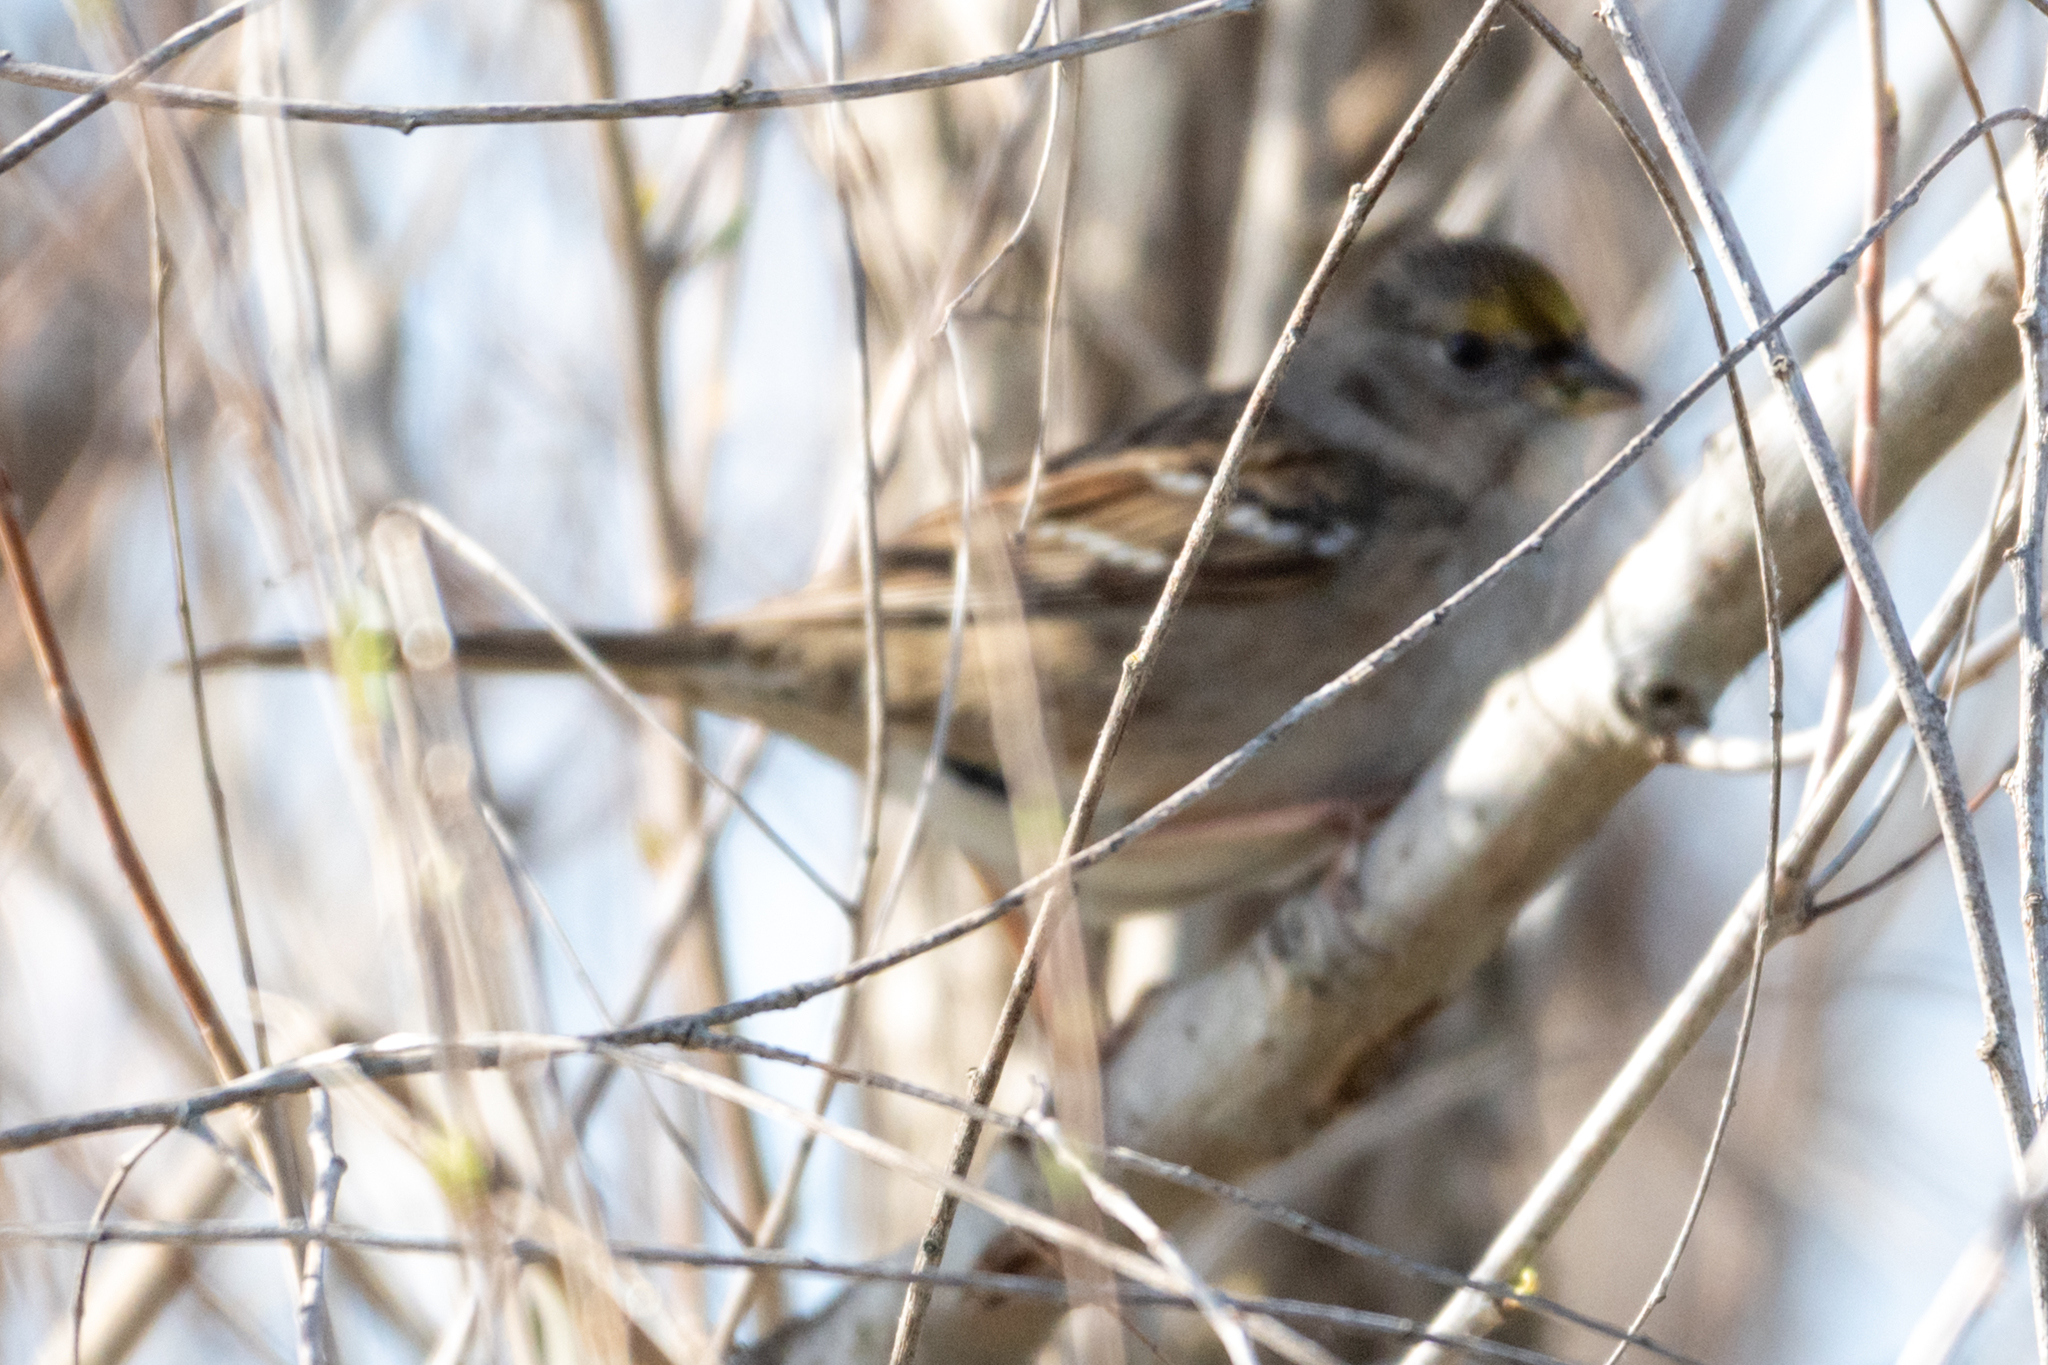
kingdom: Animalia
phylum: Chordata
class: Aves
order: Passeriformes
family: Passerellidae
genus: Zonotrichia
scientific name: Zonotrichia atricapilla
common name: Golden-crowned sparrow
